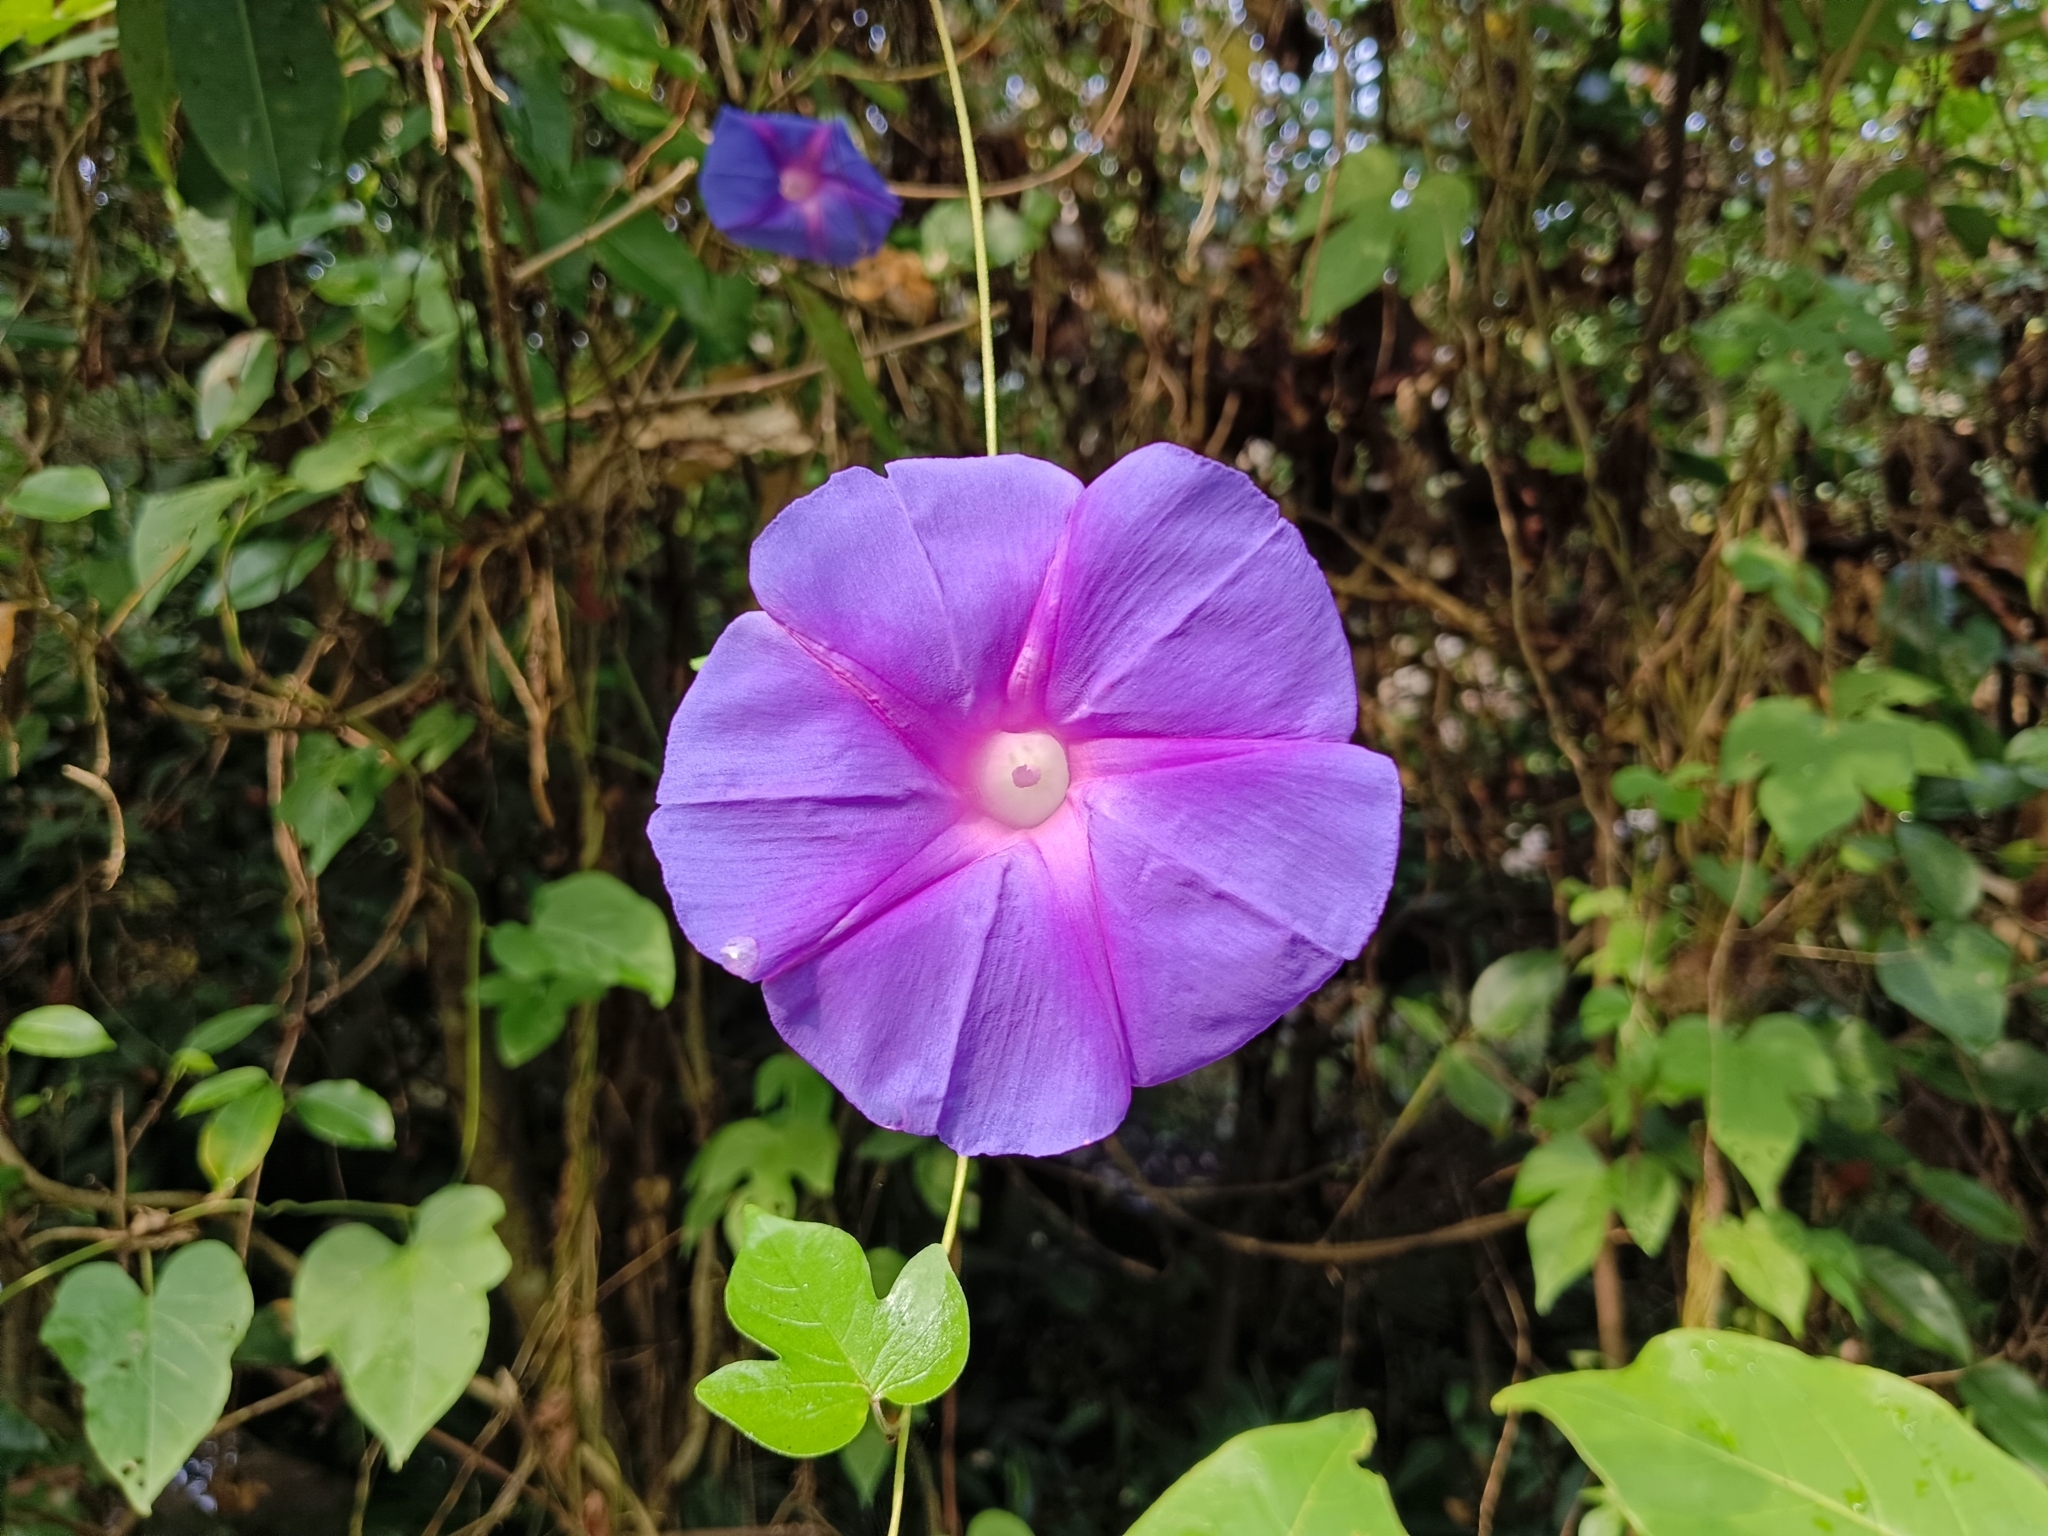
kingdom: Plantae
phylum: Tracheophyta
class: Magnoliopsida
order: Solanales
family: Convolvulaceae
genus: Ipomoea
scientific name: Ipomoea indica
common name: Blue dawnflower
